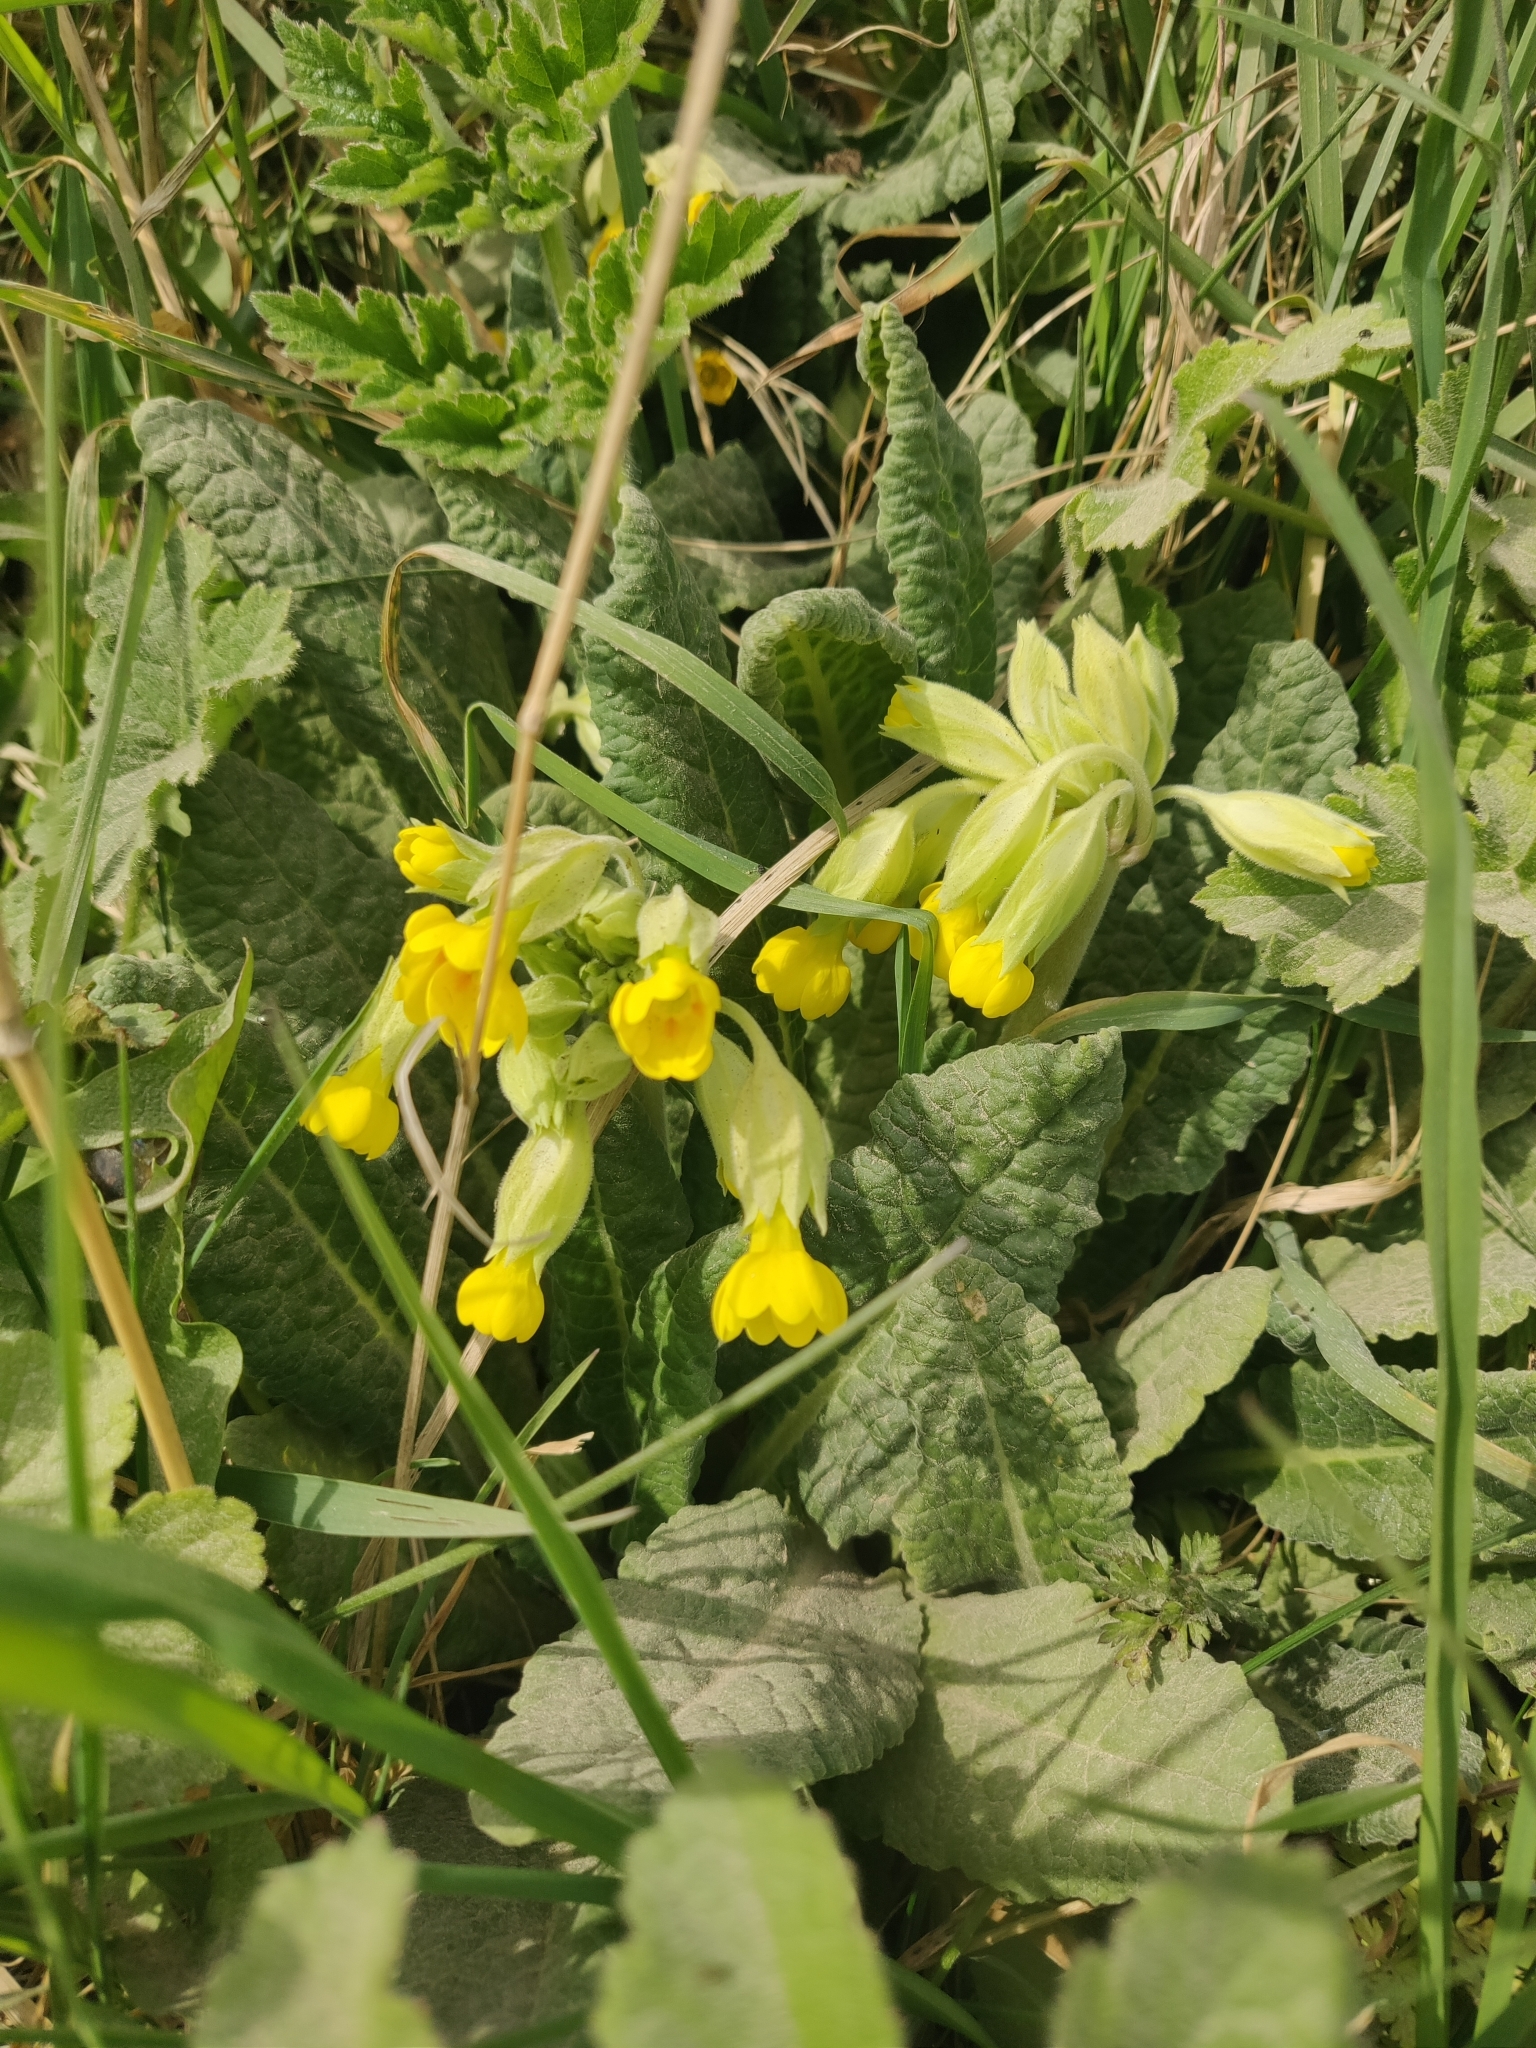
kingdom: Plantae
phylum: Tracheophyta
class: Magnoliopsida
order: Ericales
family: Primulaceae
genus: Primula
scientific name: Primula veris
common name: Cowslip
